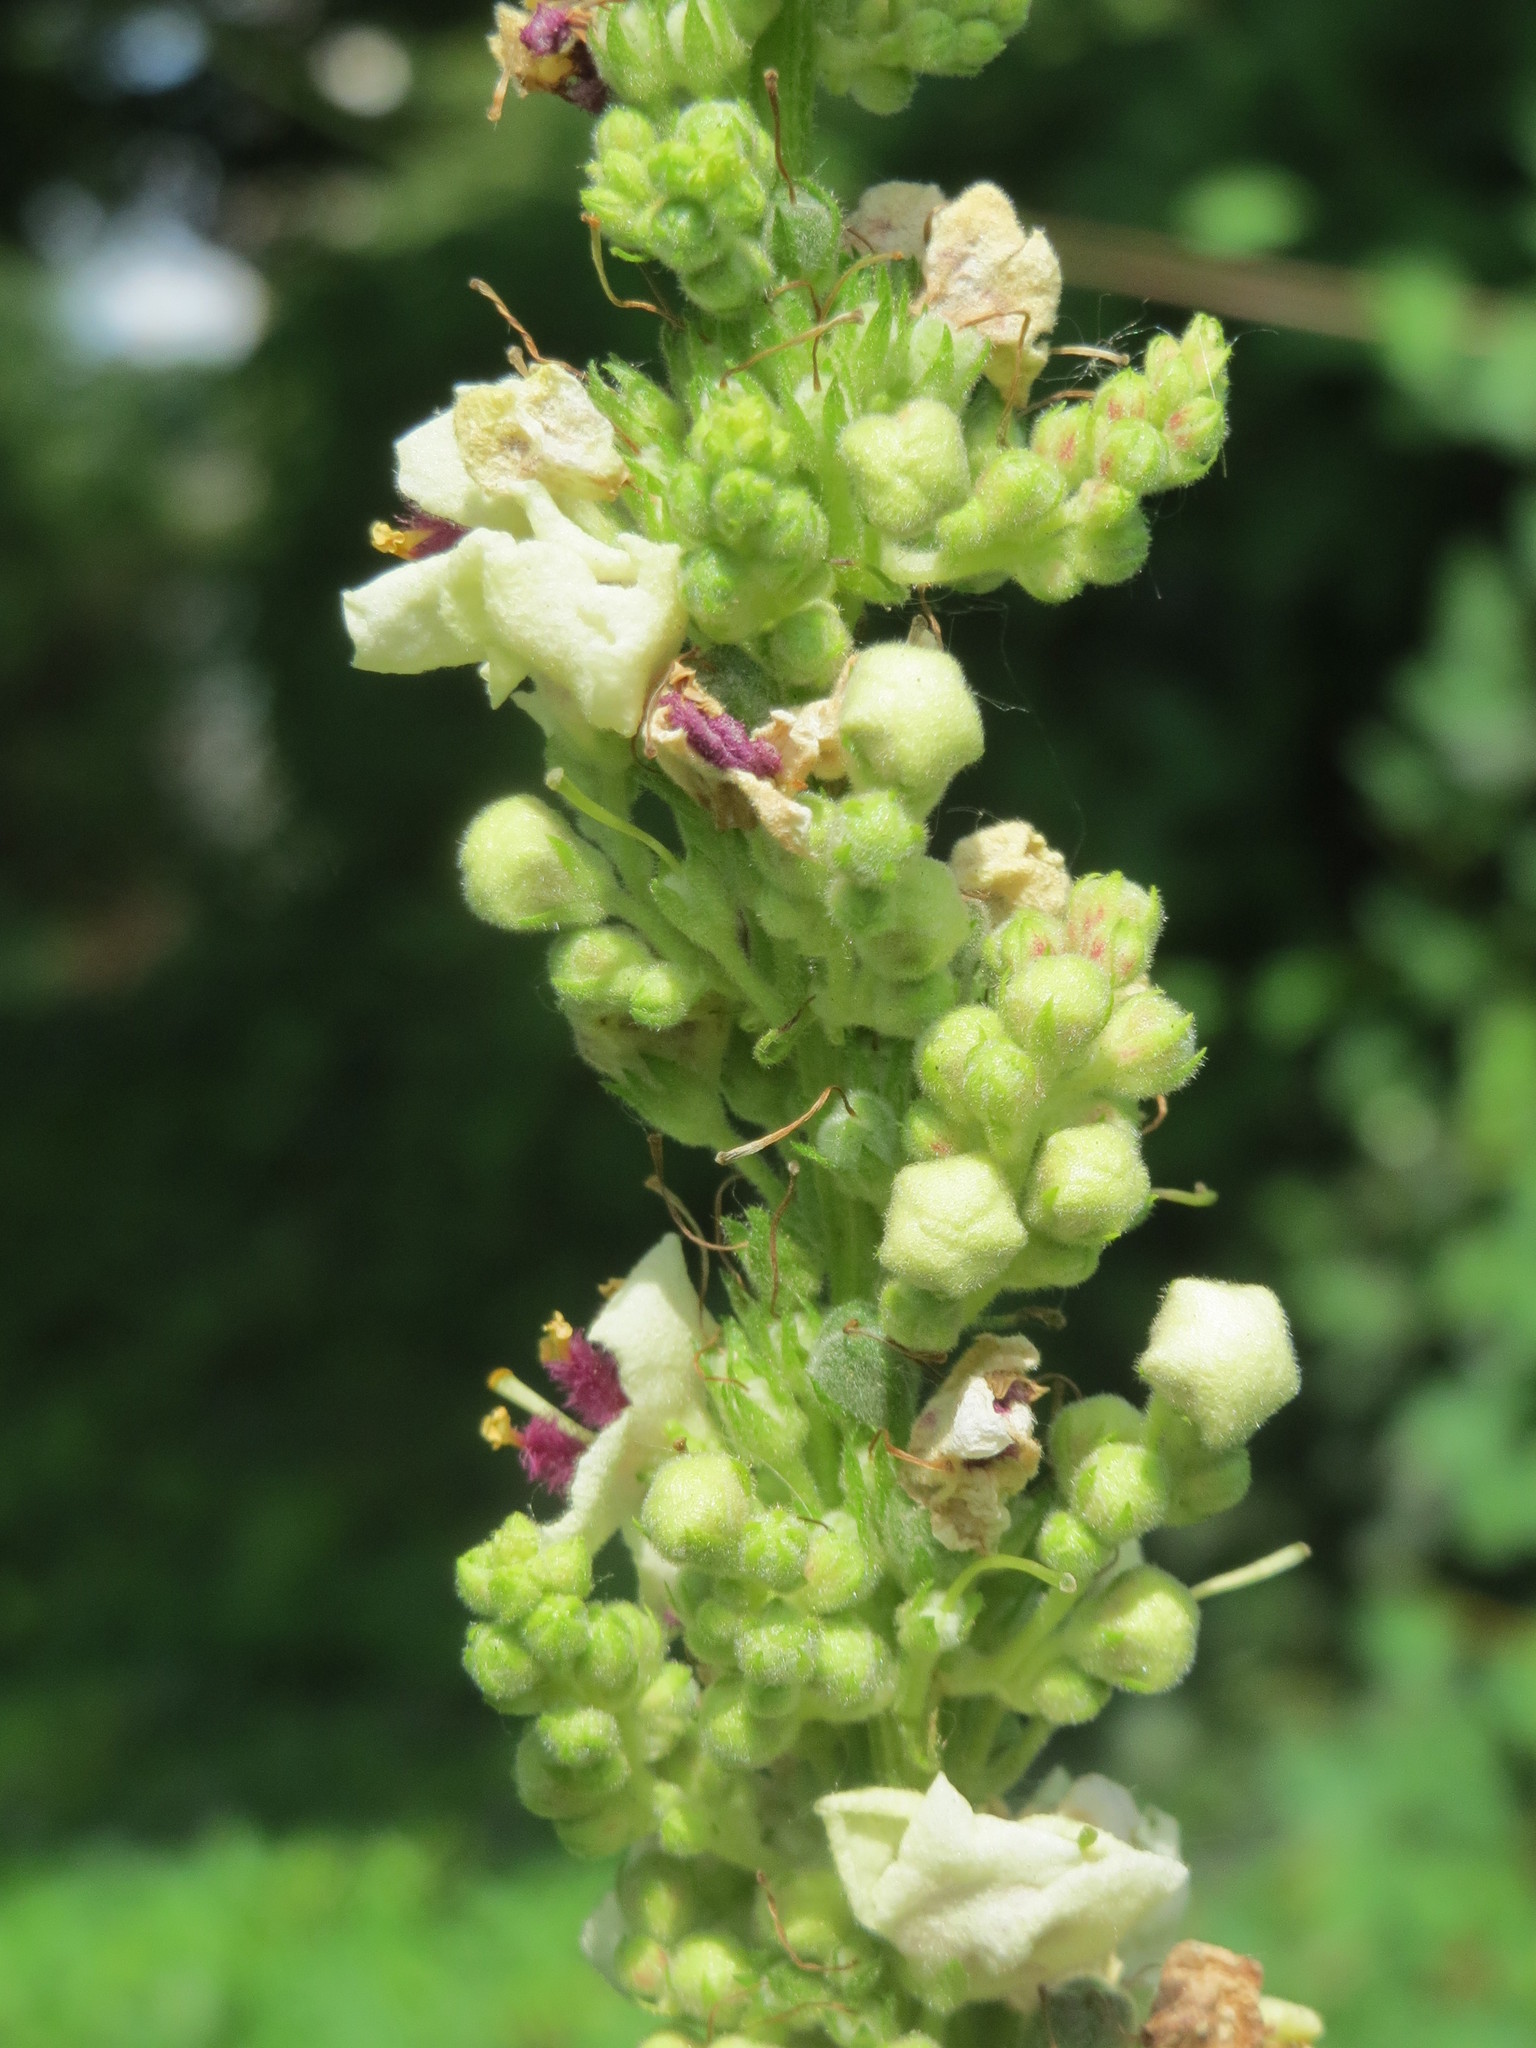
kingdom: Plantae
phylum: Tracheophyta
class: Magnoliopsida
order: Lamiales
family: Scrophulariaceae
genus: Verbascum
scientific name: Verbascum
